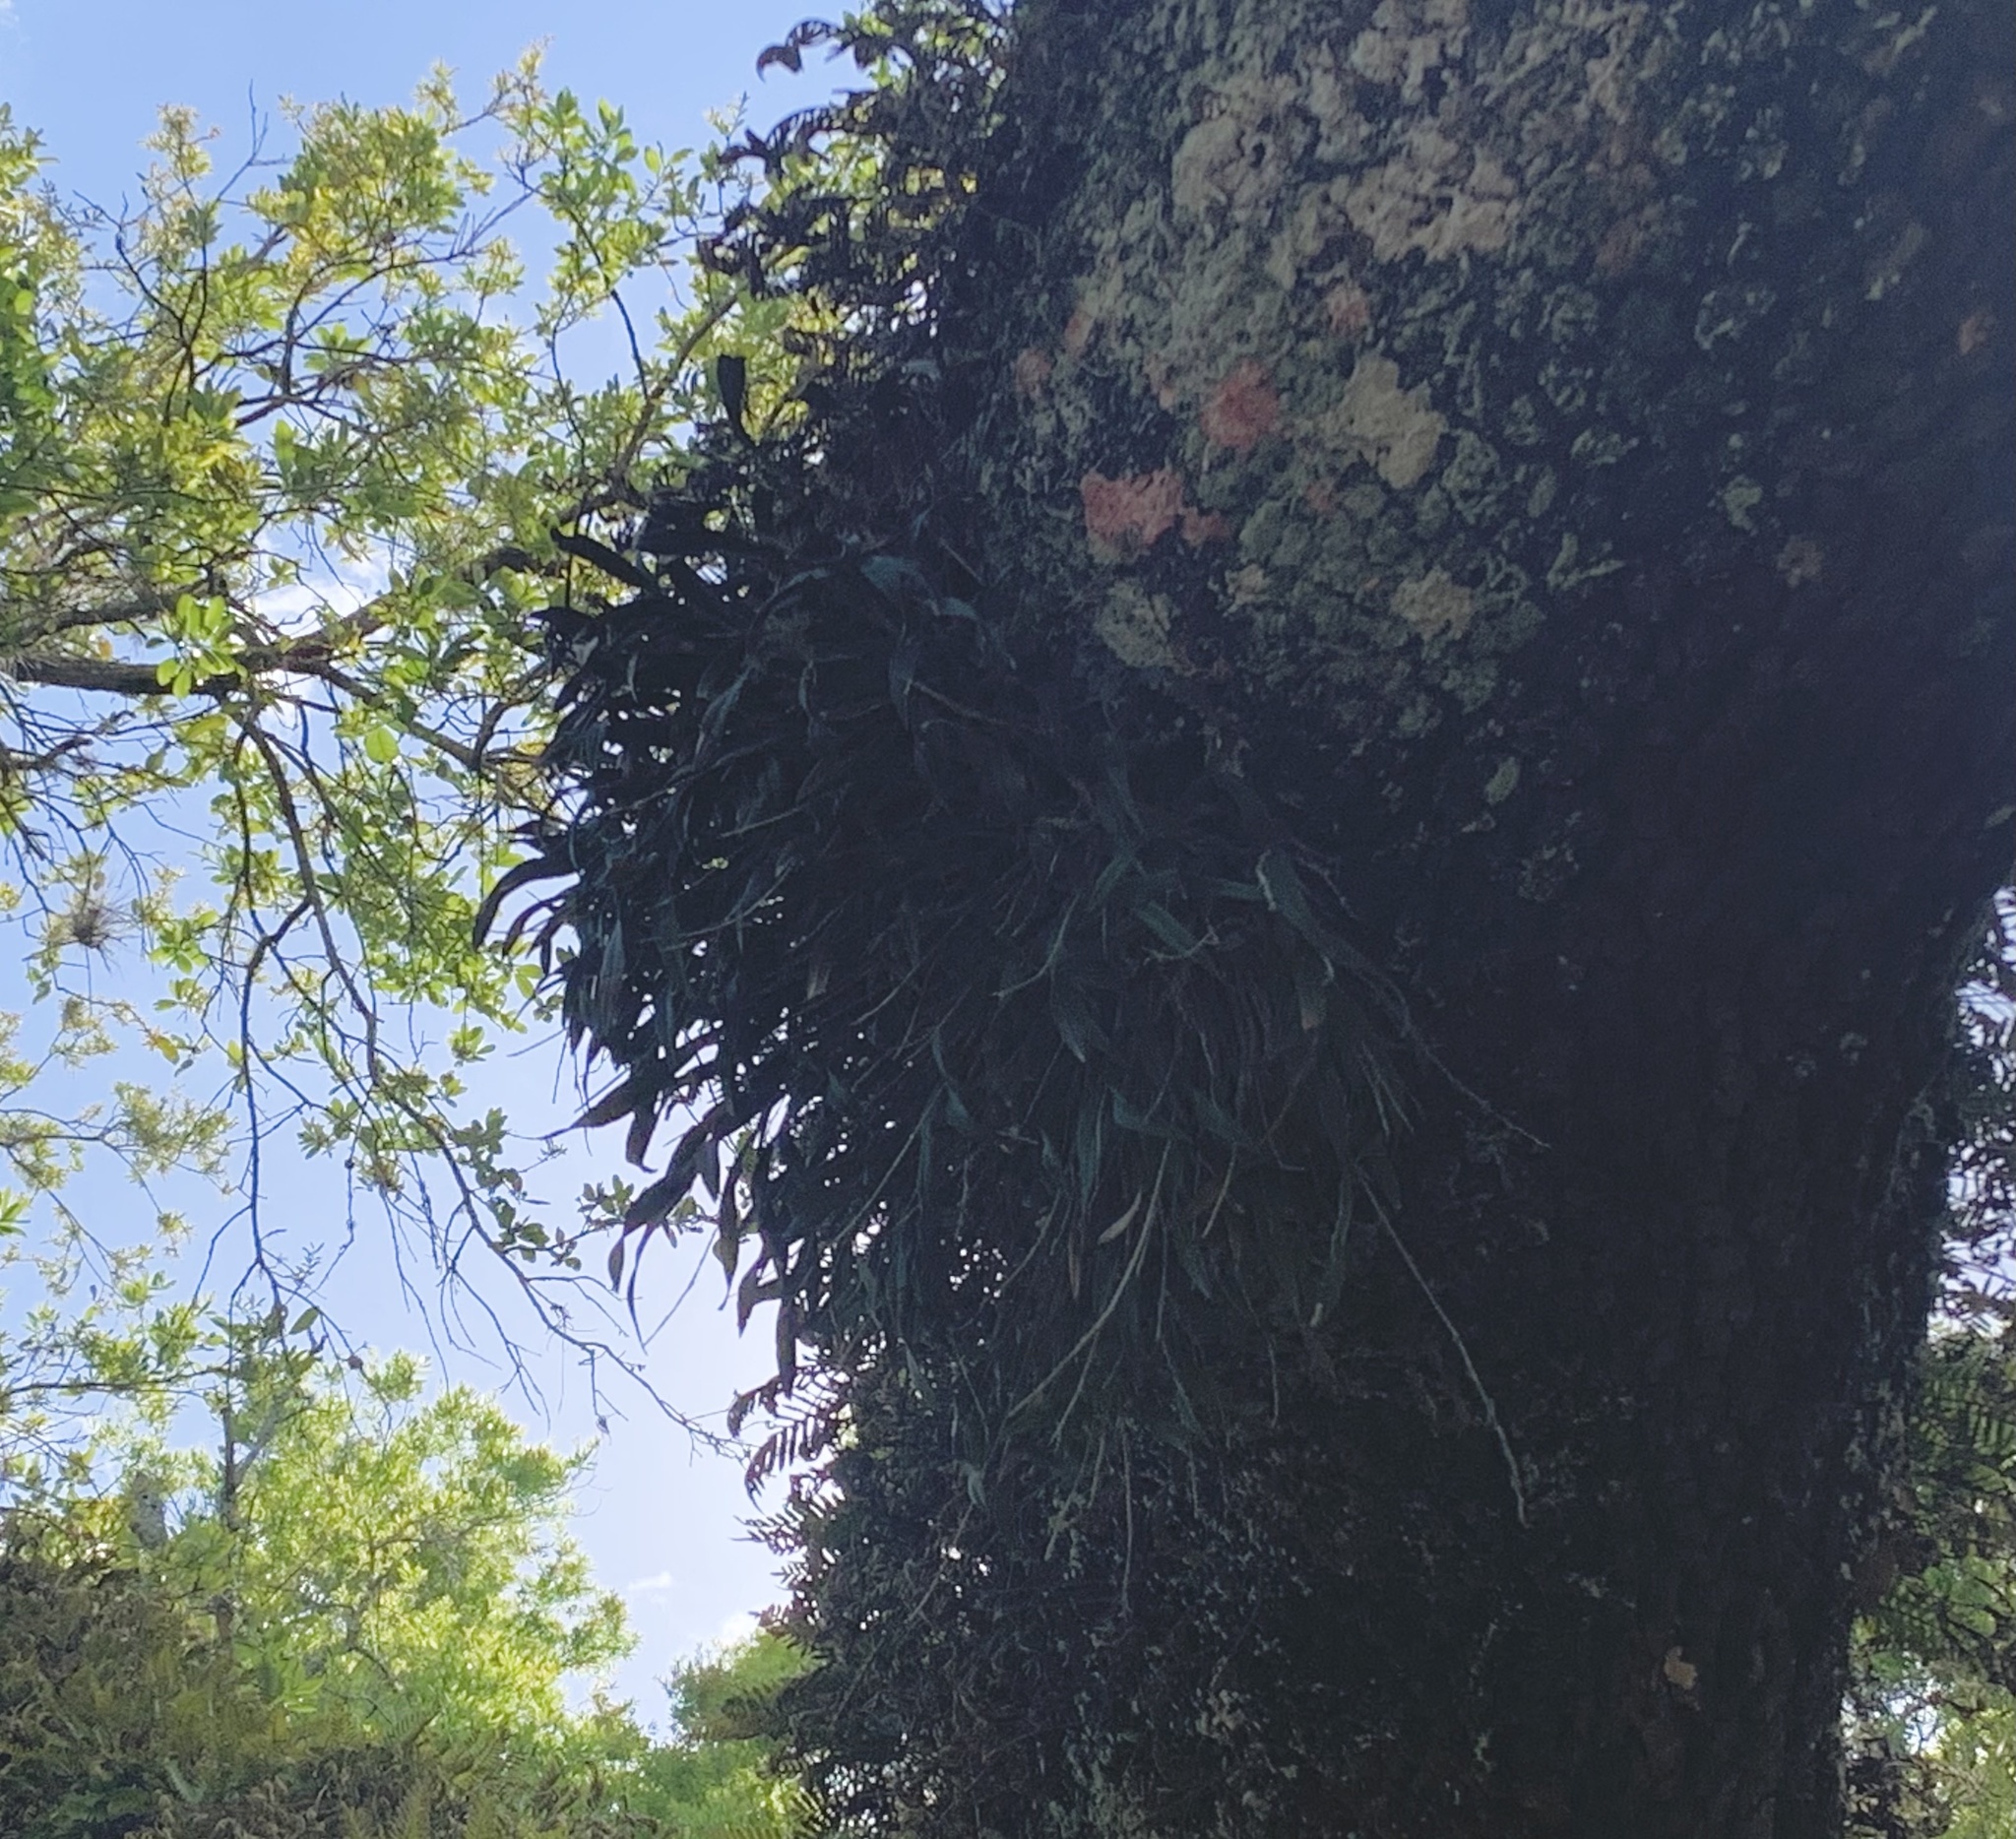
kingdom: Plantae
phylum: Tracheophyta
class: Liliopsida
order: Asparagales
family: Orchidaceae
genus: Epidendrum
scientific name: Epidendrum conopseum
